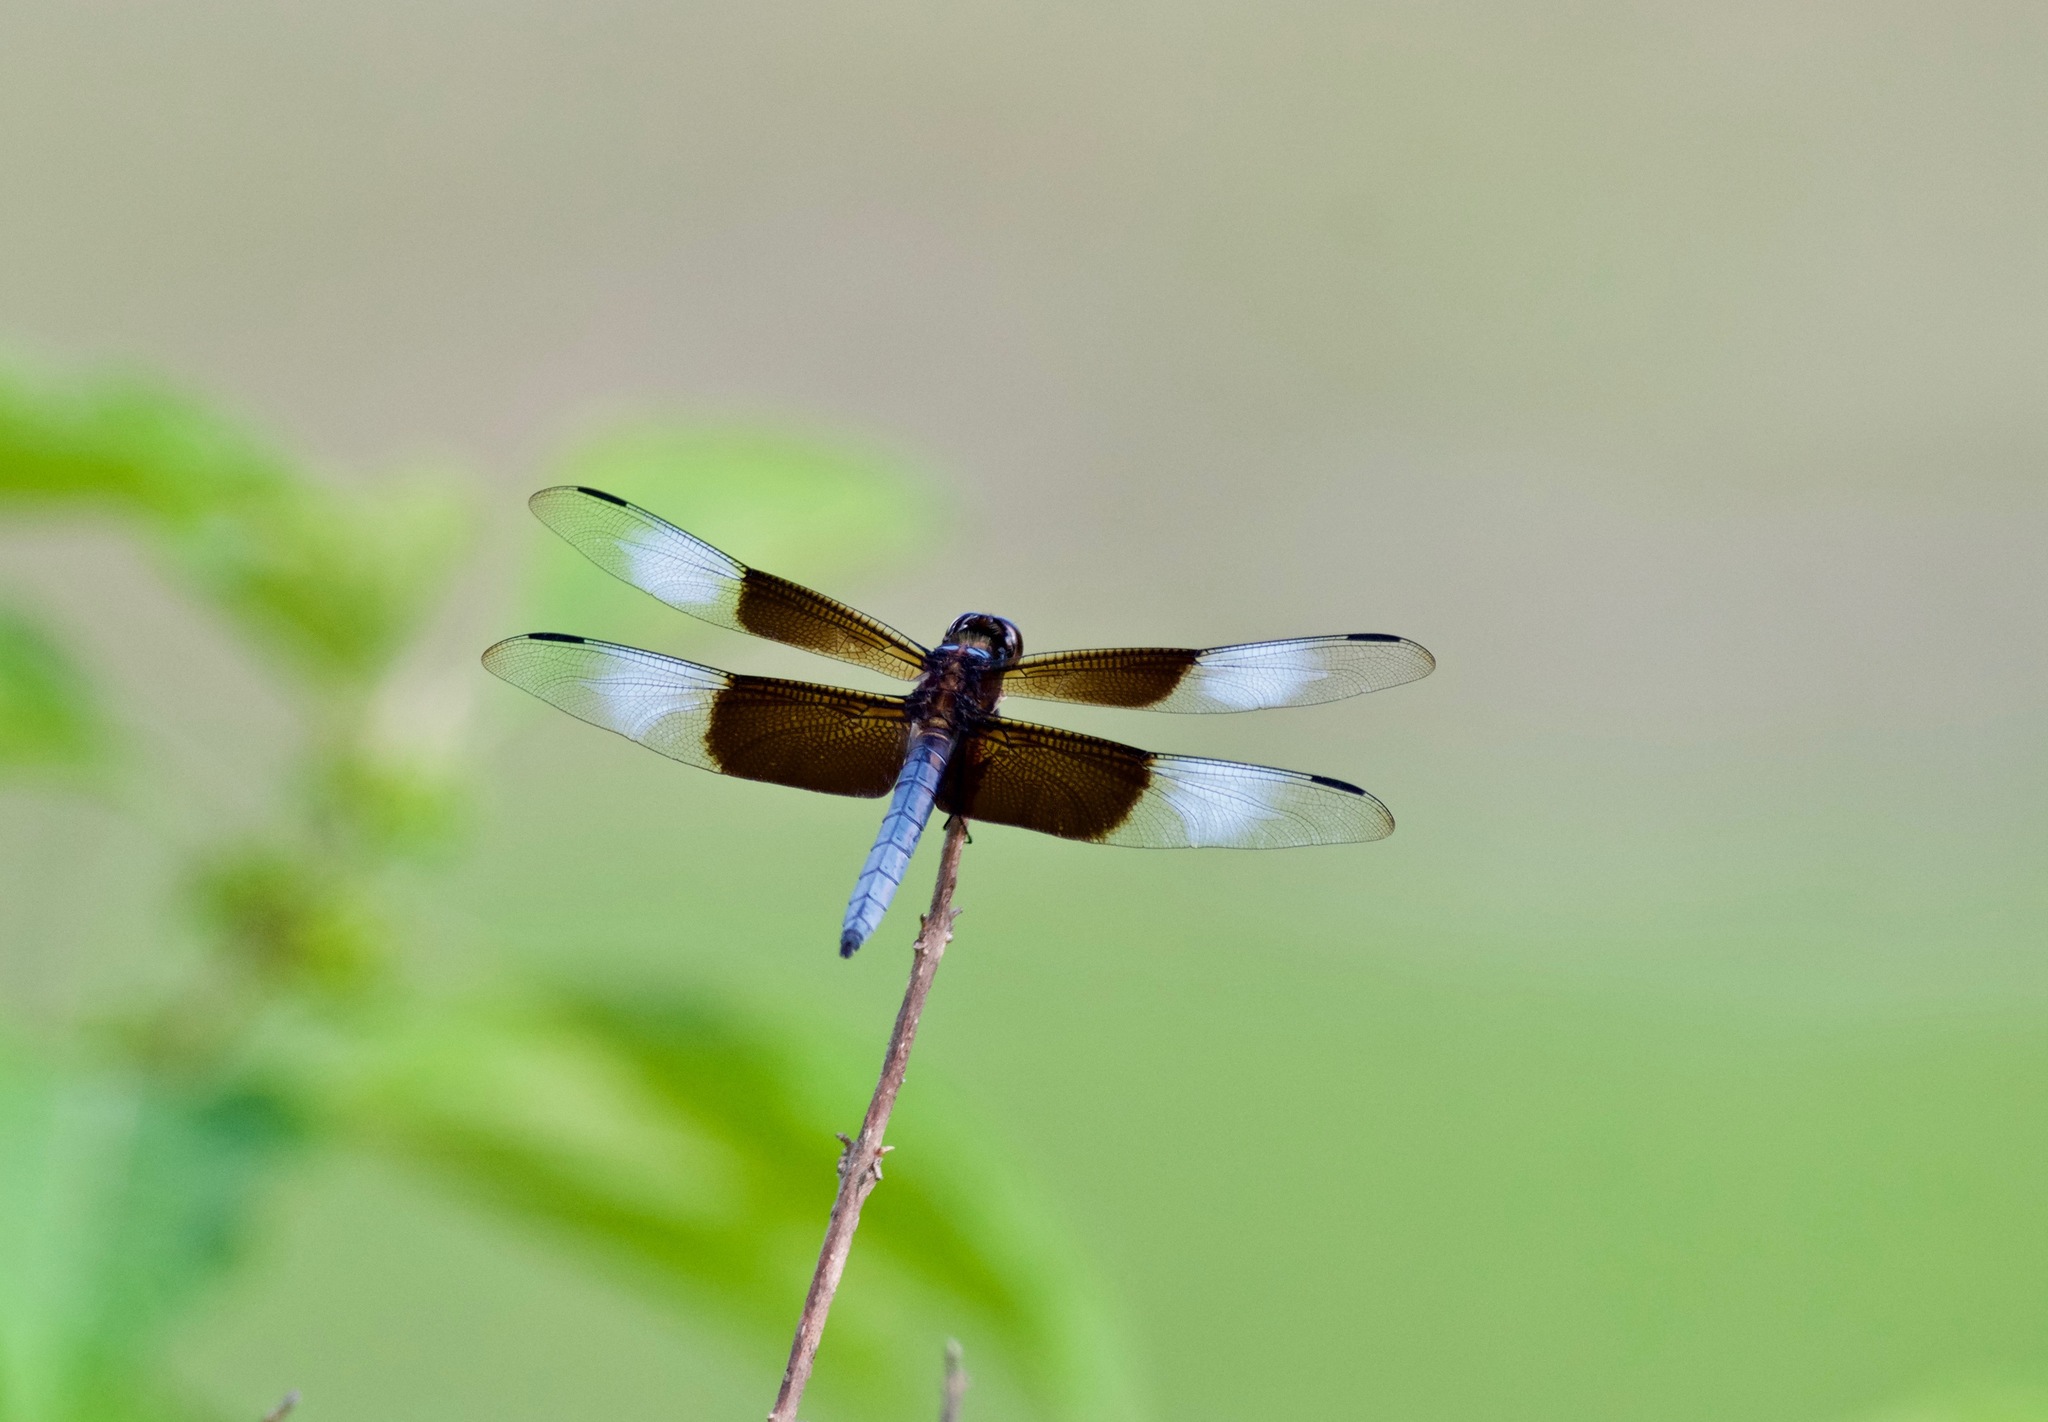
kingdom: Animalia
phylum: Arthropoda
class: Insecta
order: Odonata
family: Libellulidae
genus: Libellula
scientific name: Libellula luctuosa
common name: Widow skimmer
